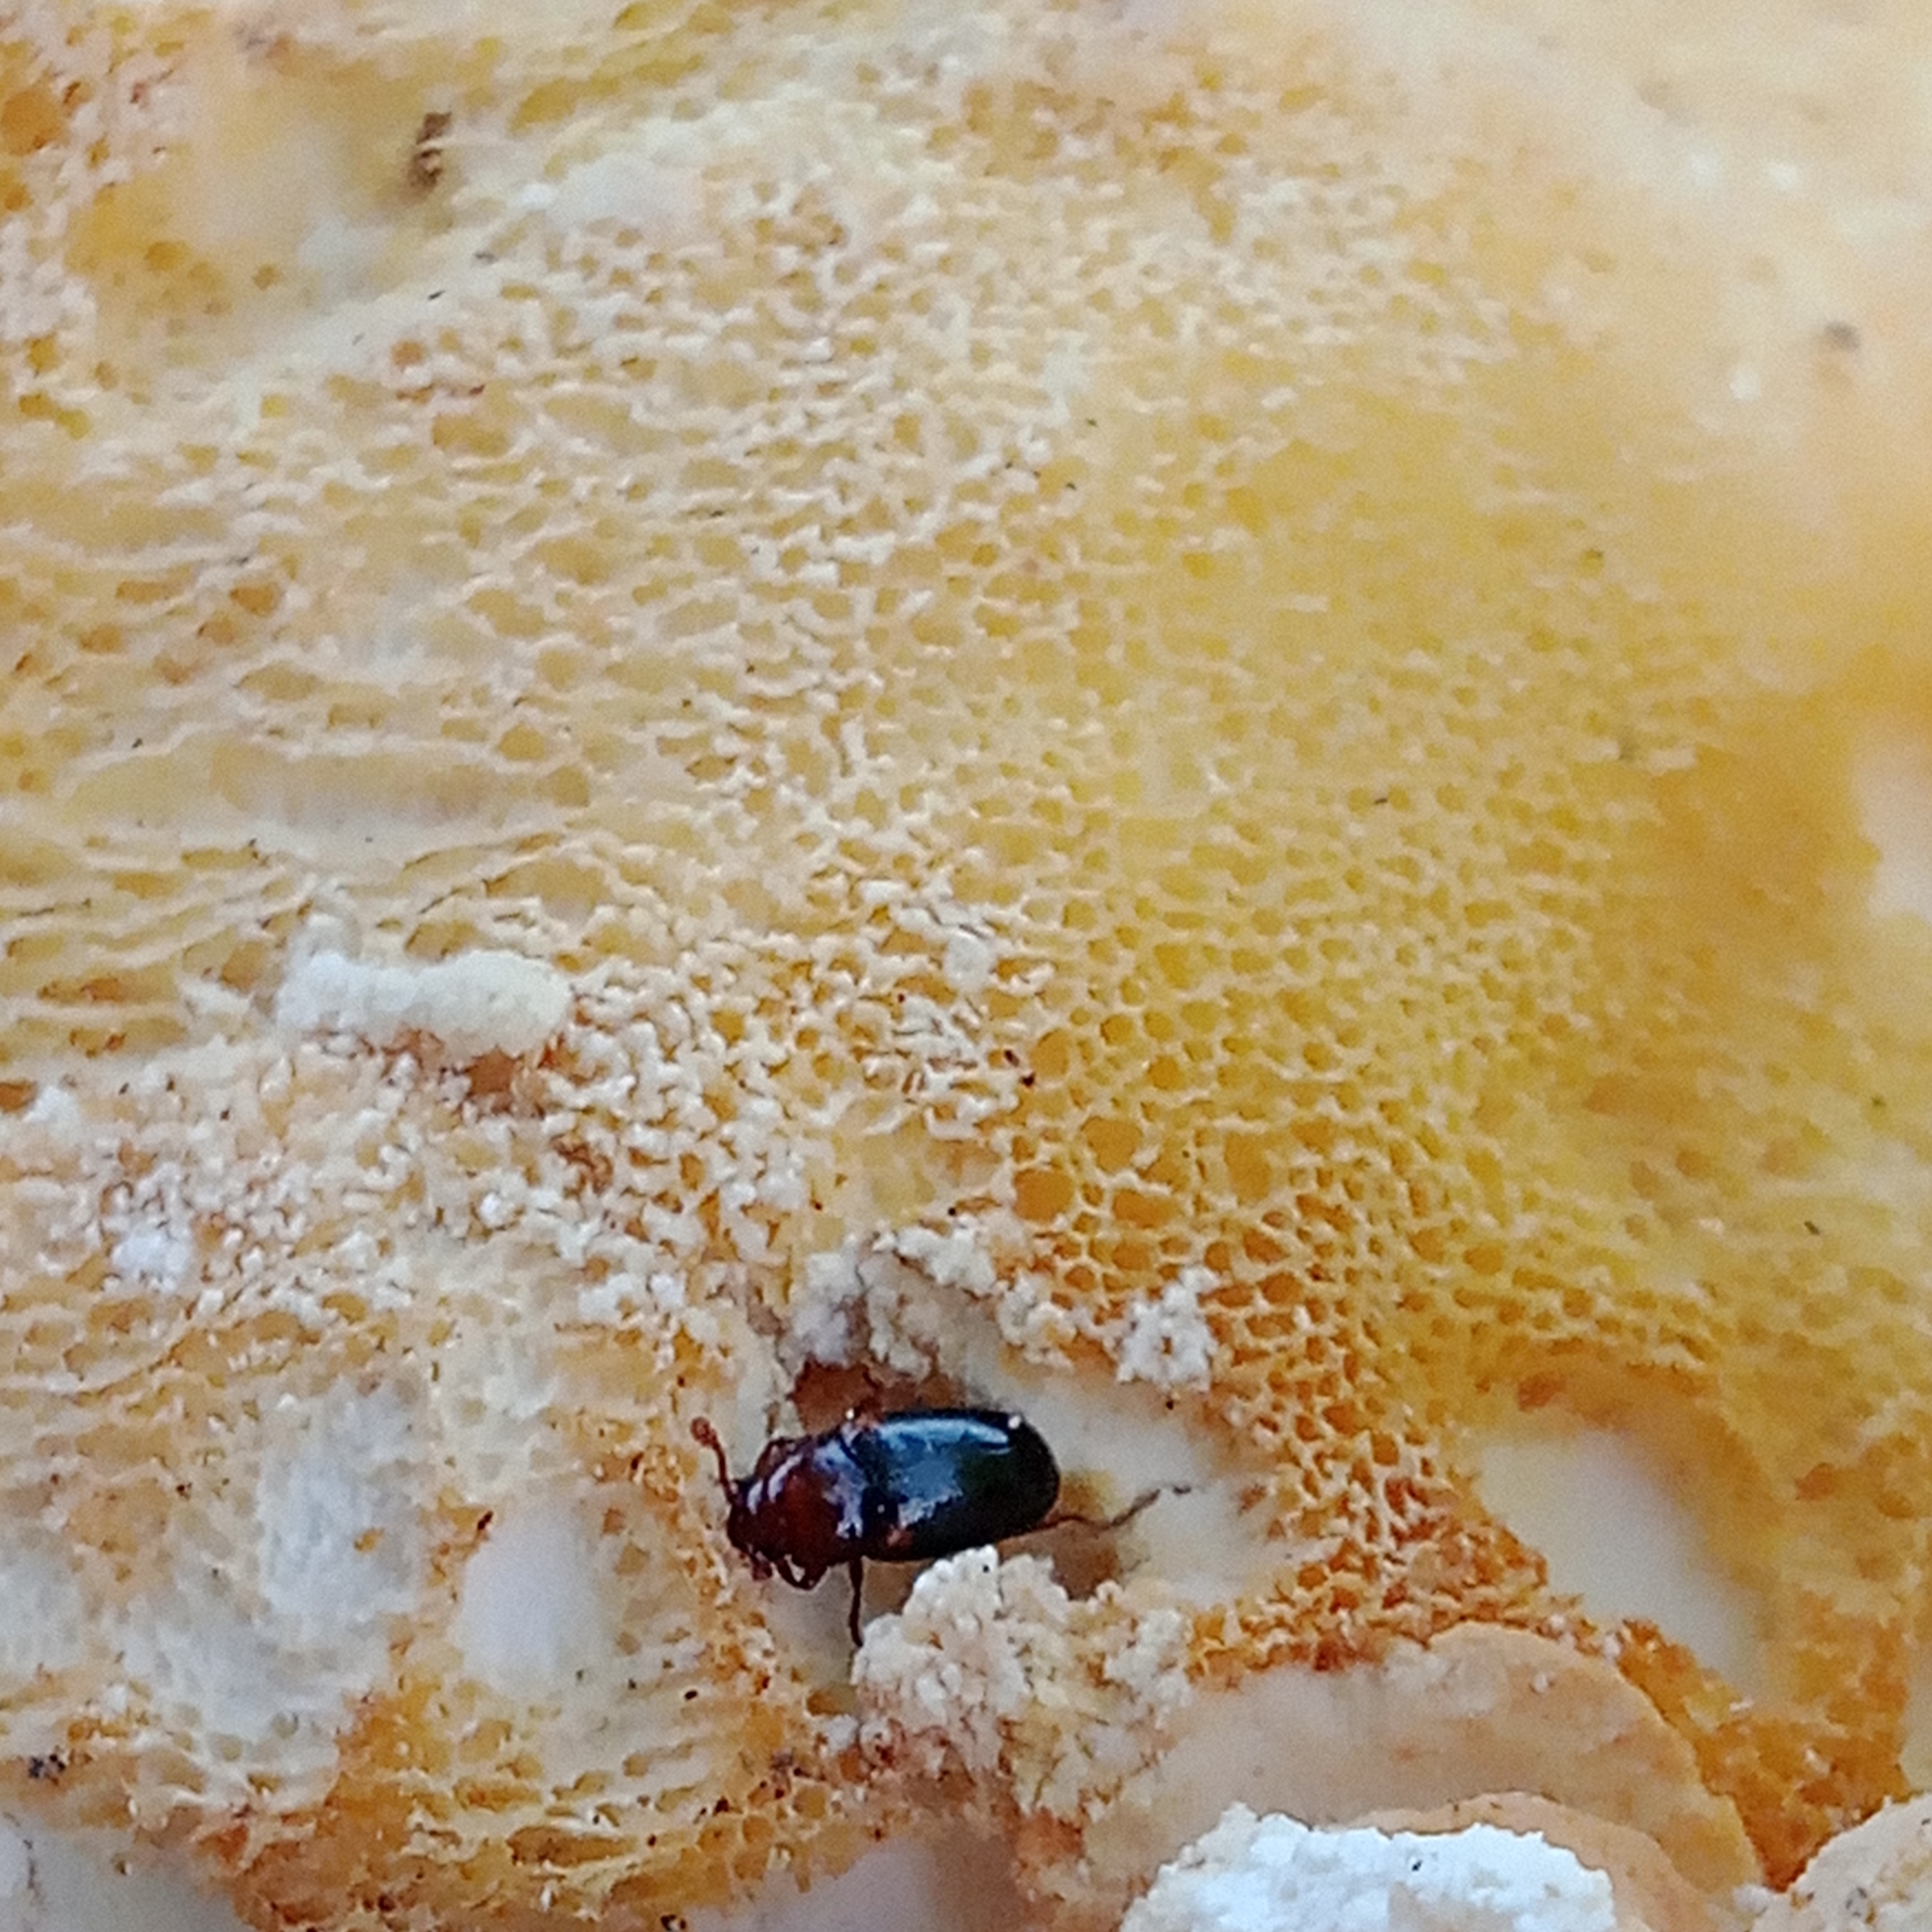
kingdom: Animalia
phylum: Arthropoda
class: Insecta
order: Coleoptera
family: Erotylidae
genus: Dacne
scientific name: Dacne bipustulata
